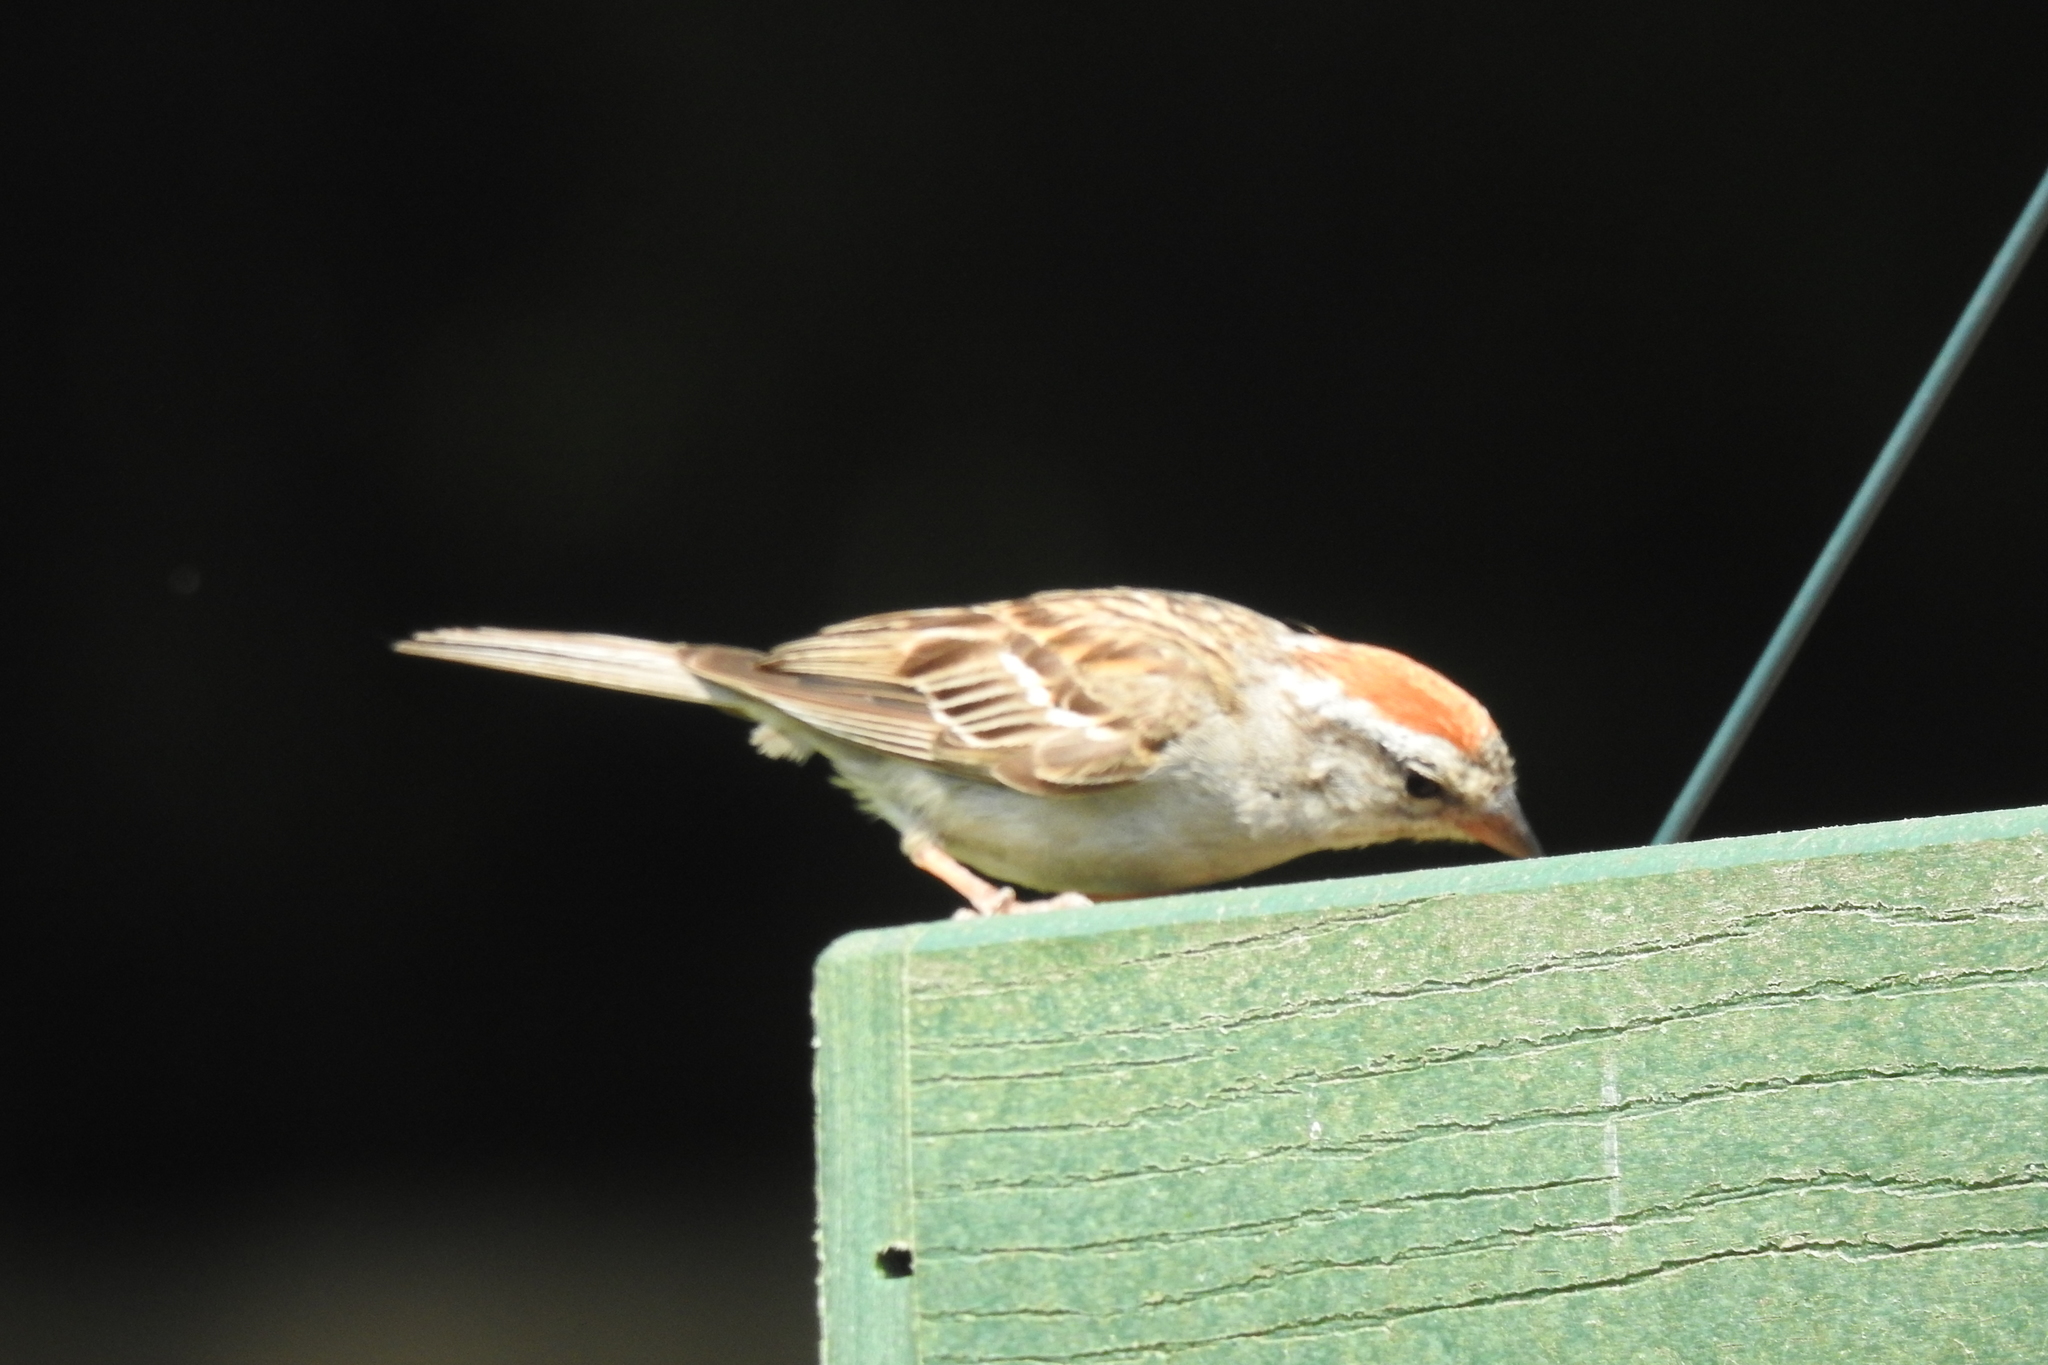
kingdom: Animalia
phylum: Chordata
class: Aves
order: Passeriformes
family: Passerellidae
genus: Spizella
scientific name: Spizella passerina
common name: Chipping sparrow
